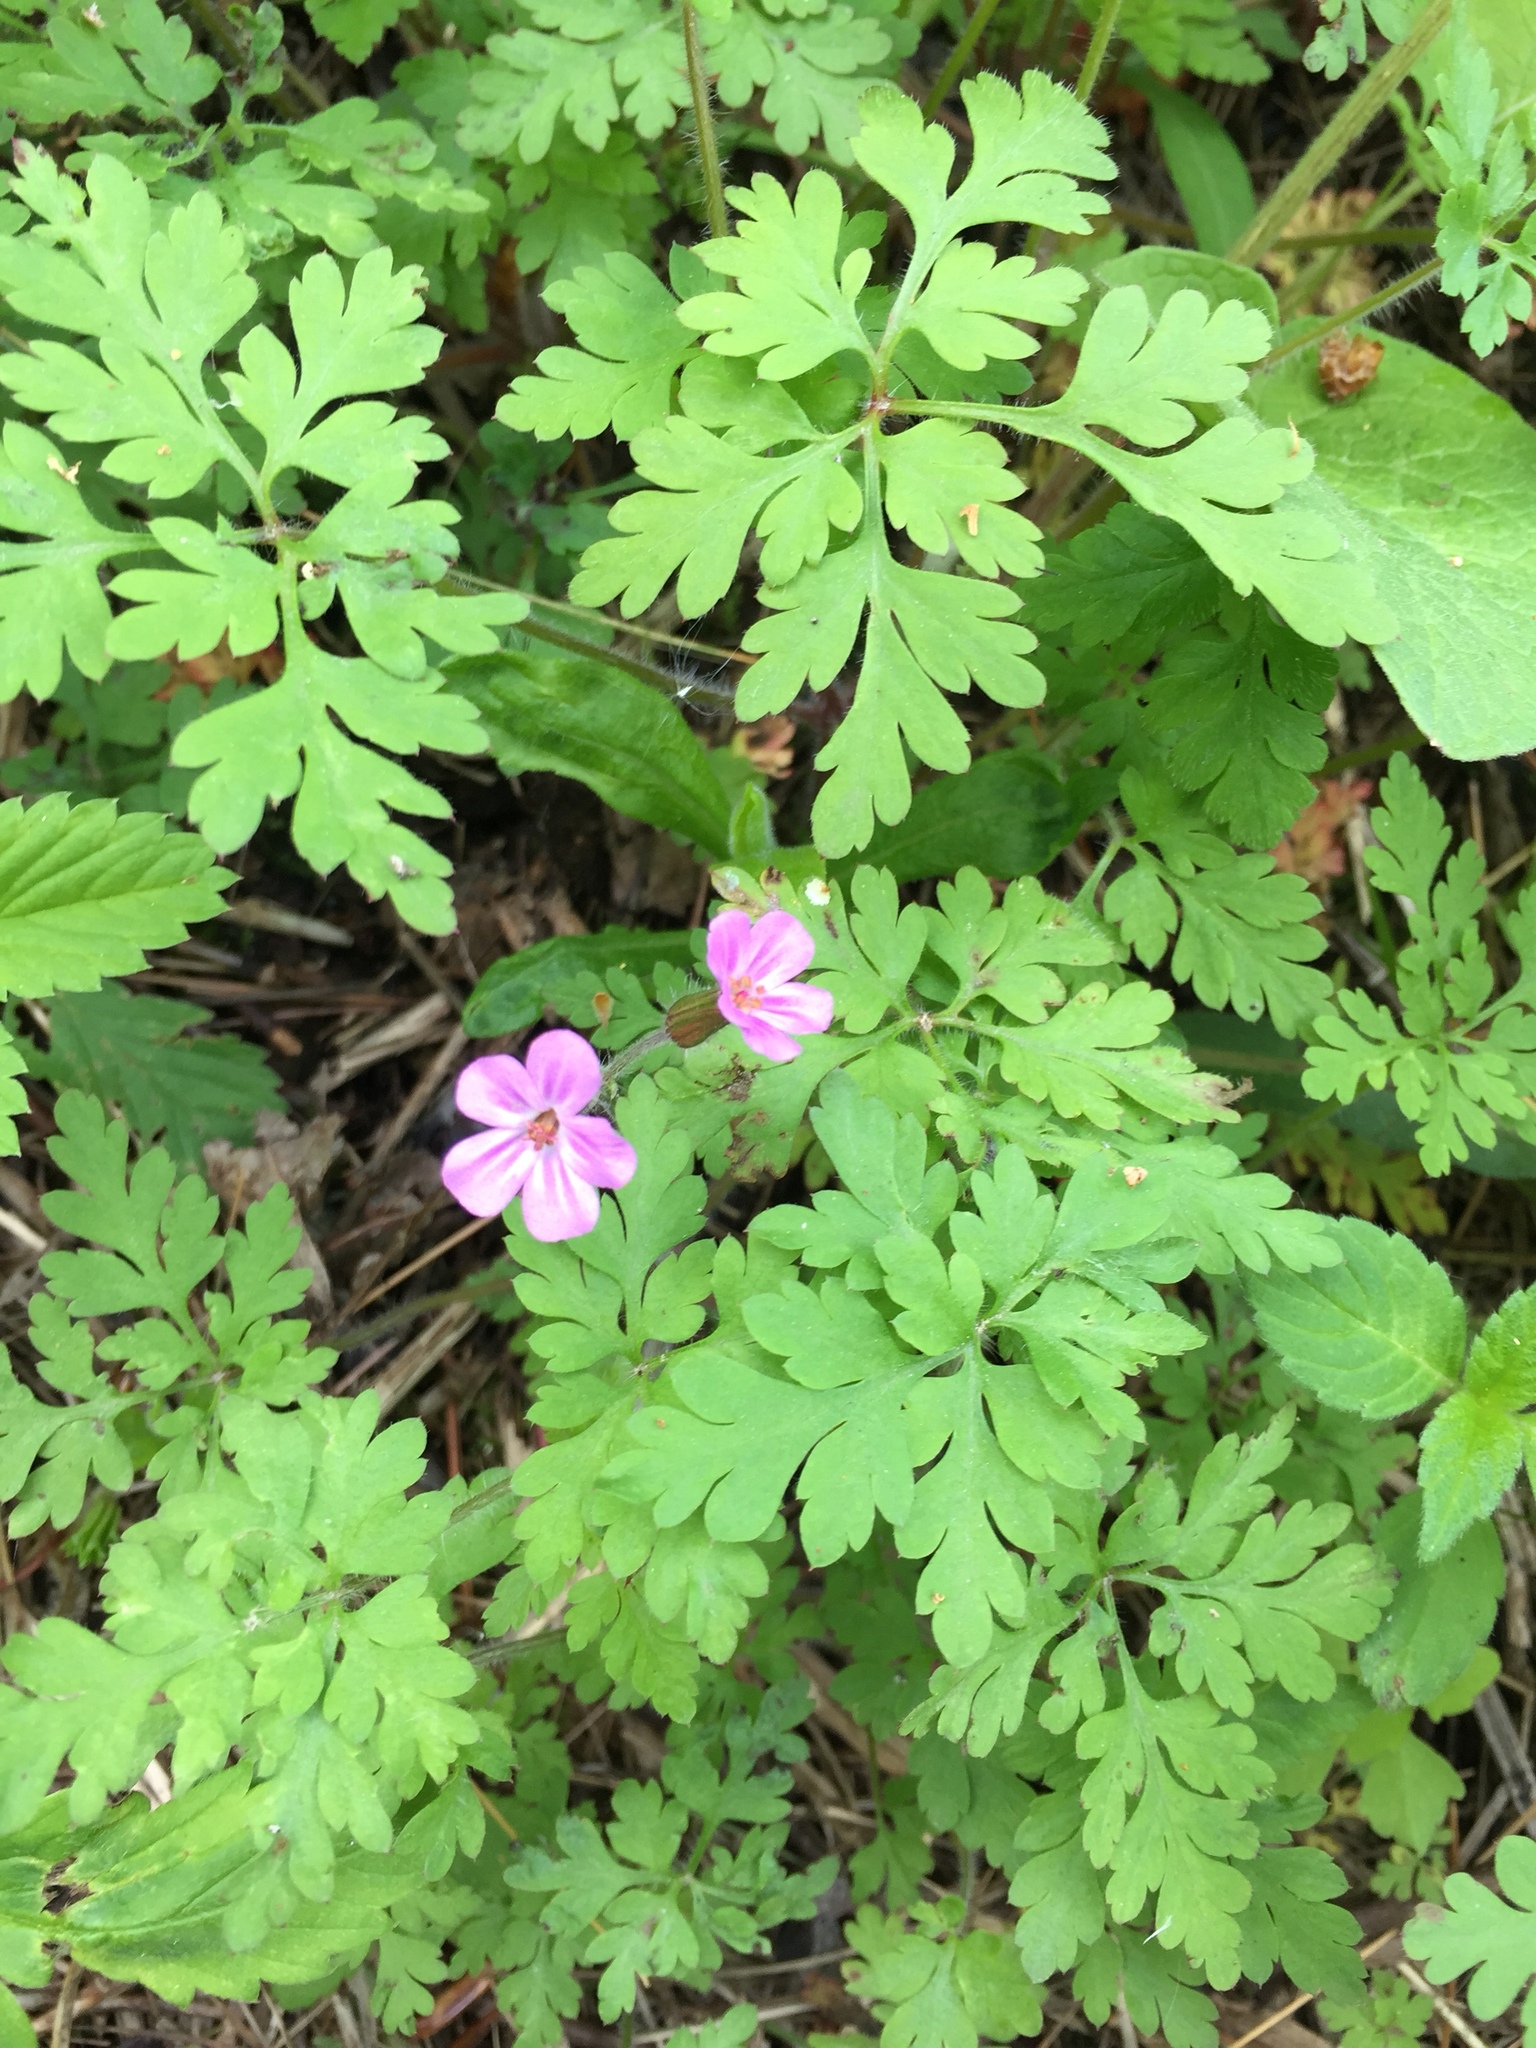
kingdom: Plantae
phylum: Tracheophyta
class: Magnoliopsida
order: Geraniales
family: Geraniaceae
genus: Geranium
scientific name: Geranium robertianum
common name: Herb-robert
